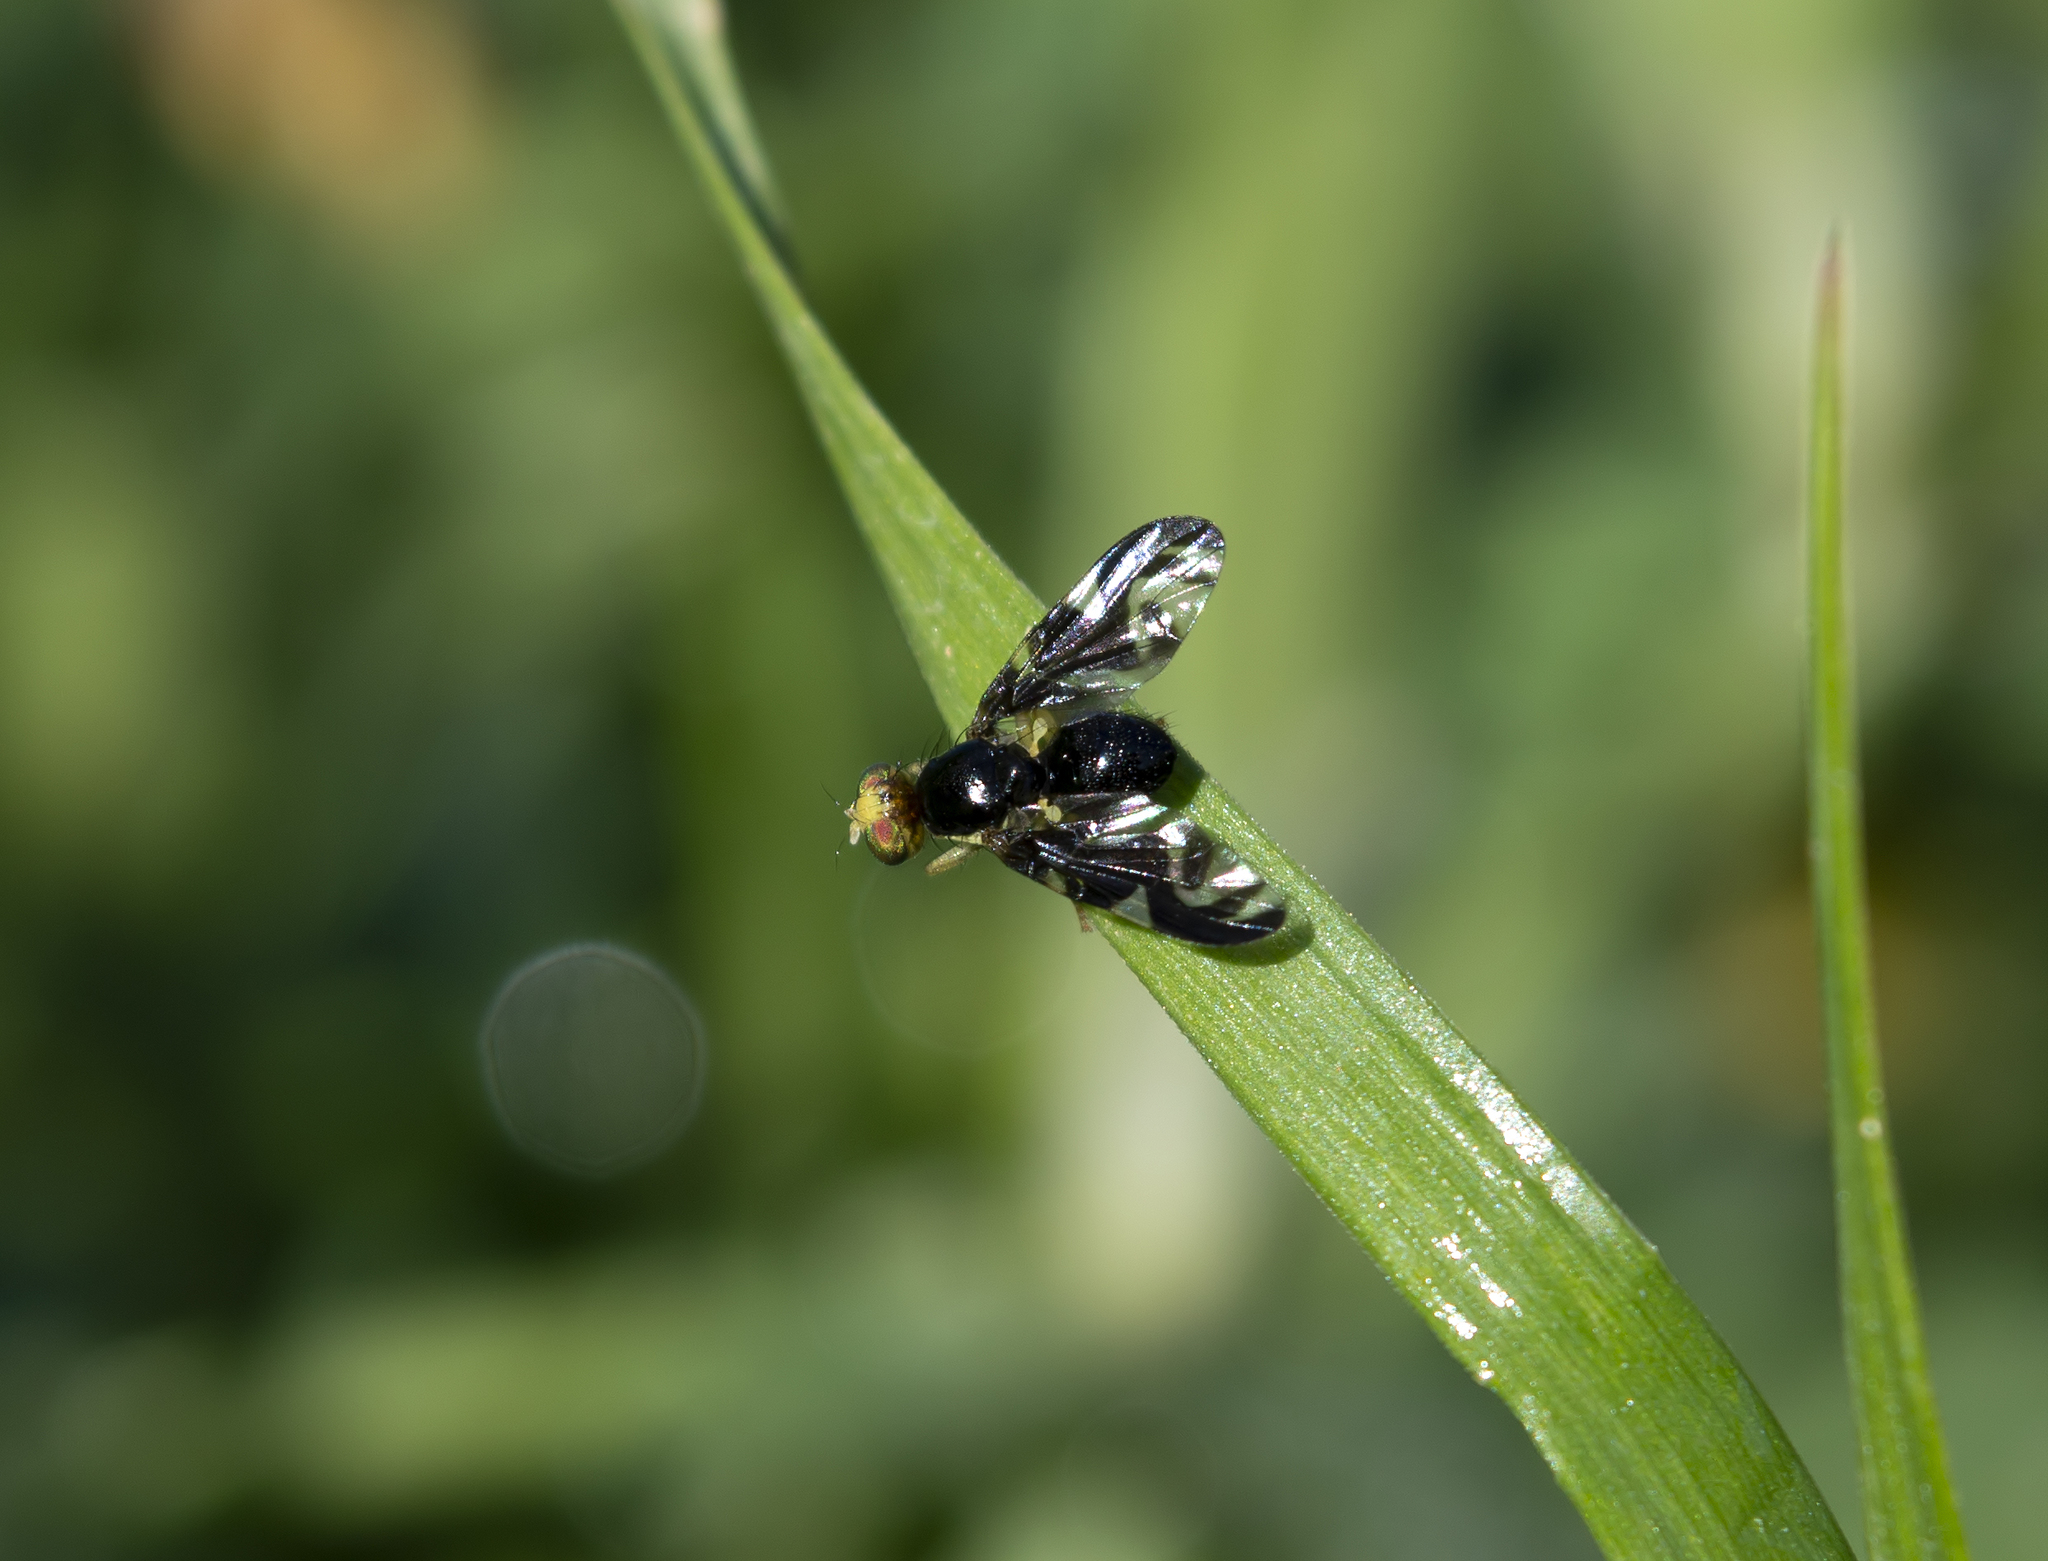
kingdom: Animalia
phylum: Arthropoda
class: Insecta
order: Diptera
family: Tephritidae
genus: Euleia
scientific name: Euleia heraclei
